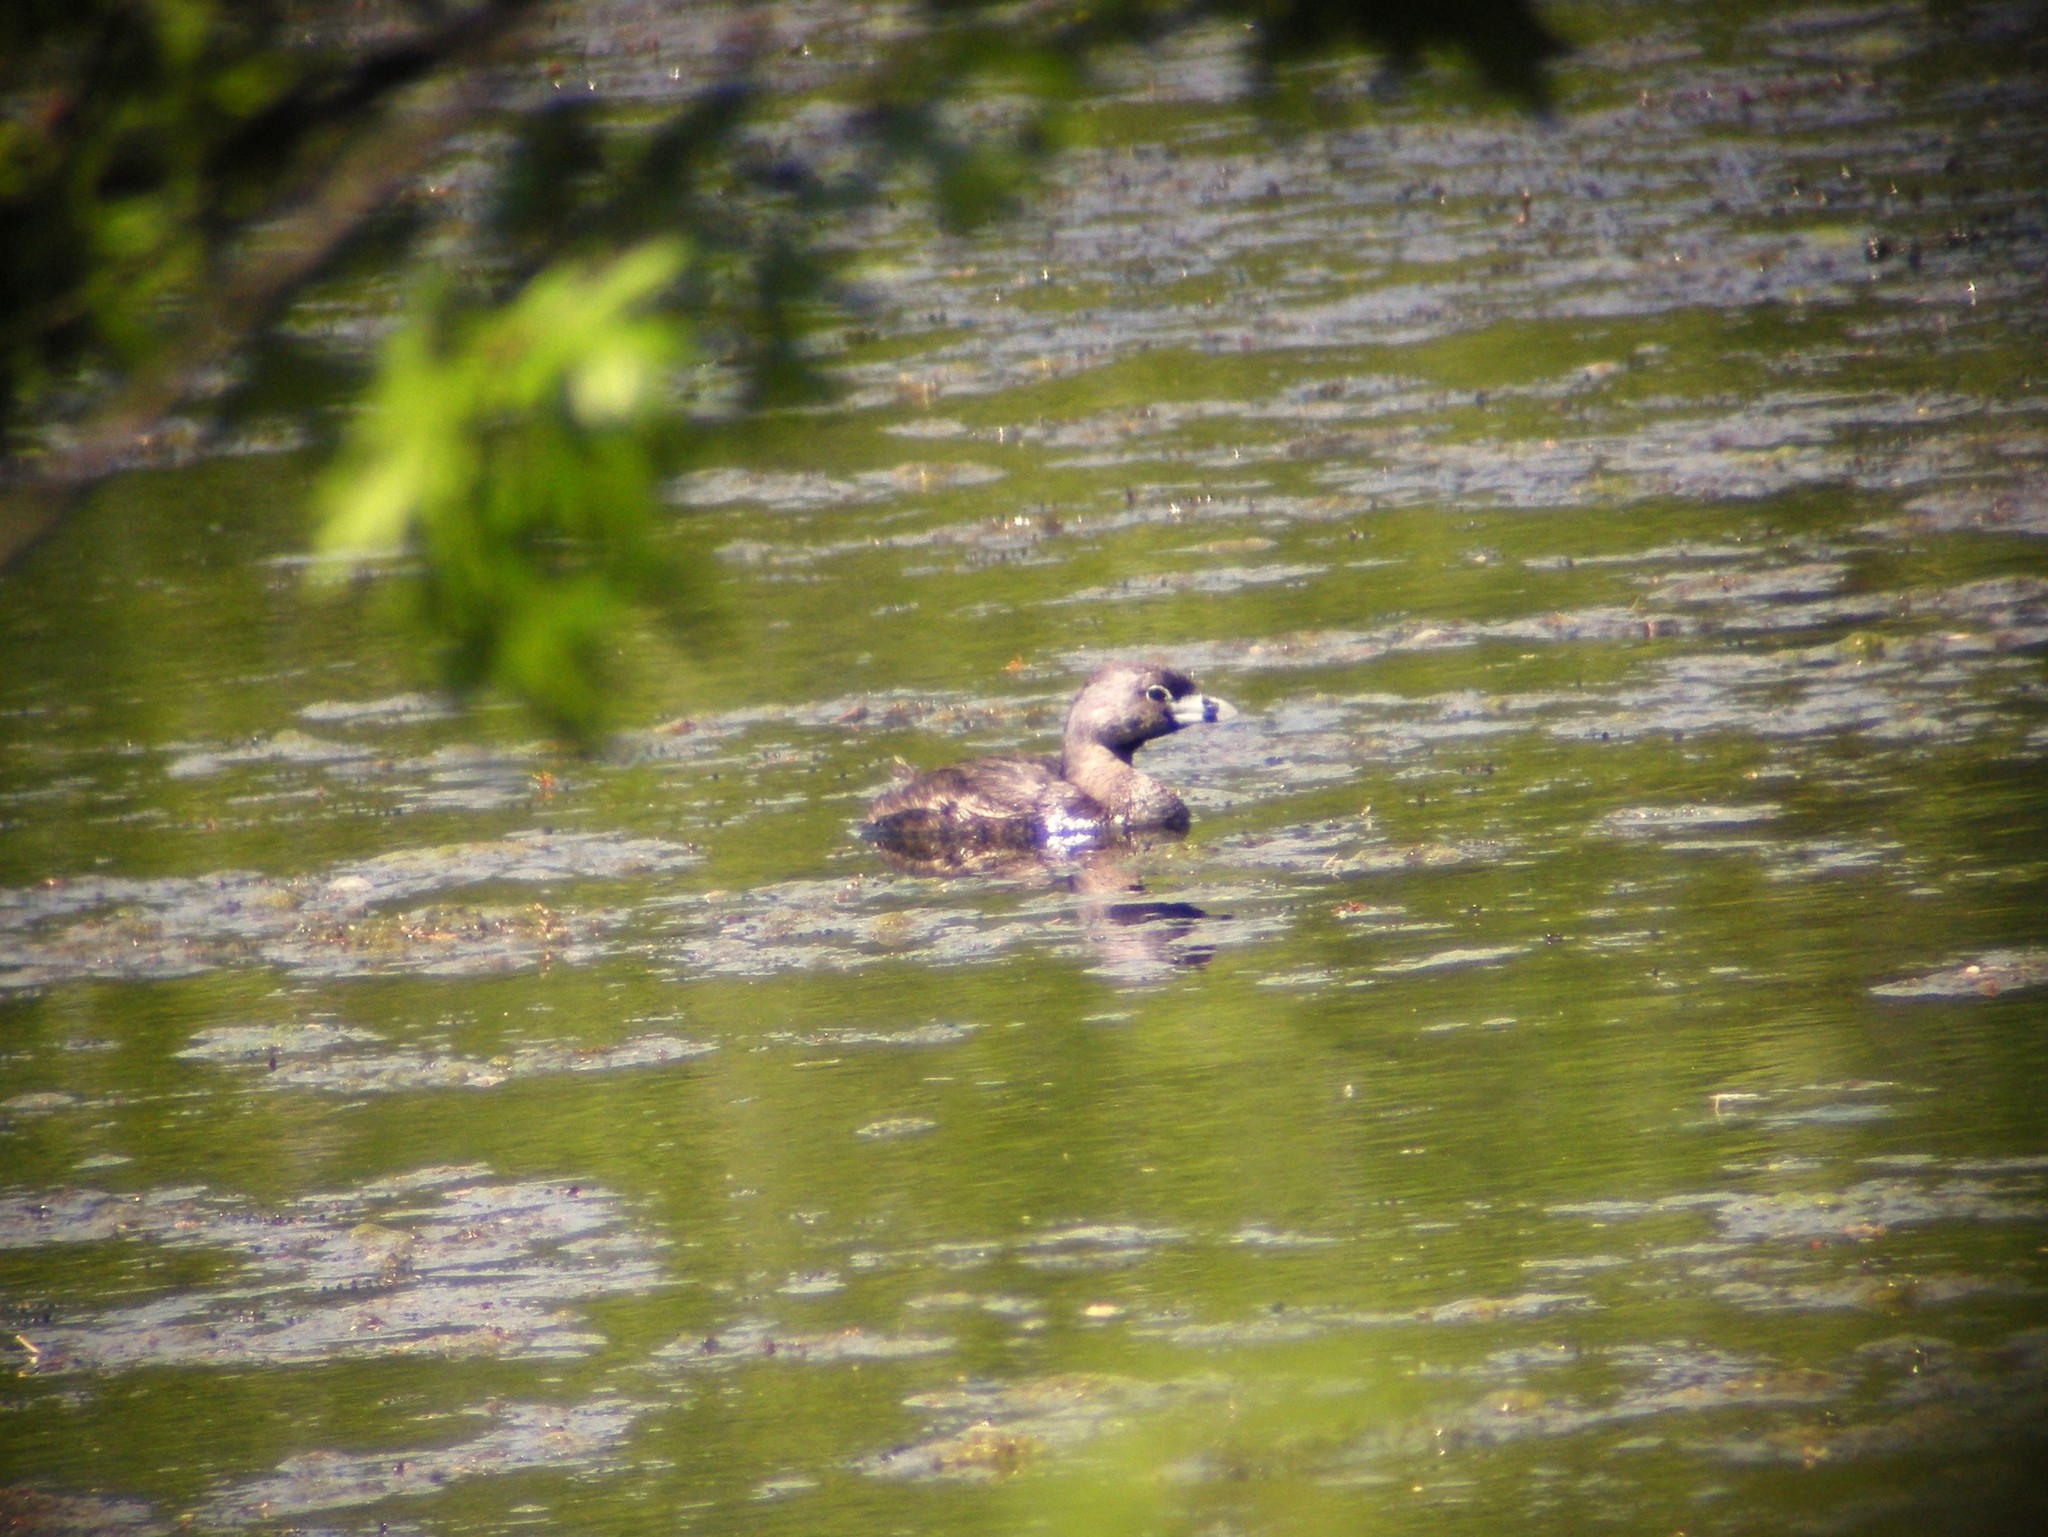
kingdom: Animalia
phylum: Chordata
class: Aves
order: Podicipediformes
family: Podicipedidae
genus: Podilymbus
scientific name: Podilymbus podiceps
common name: Pied-billed grebe
